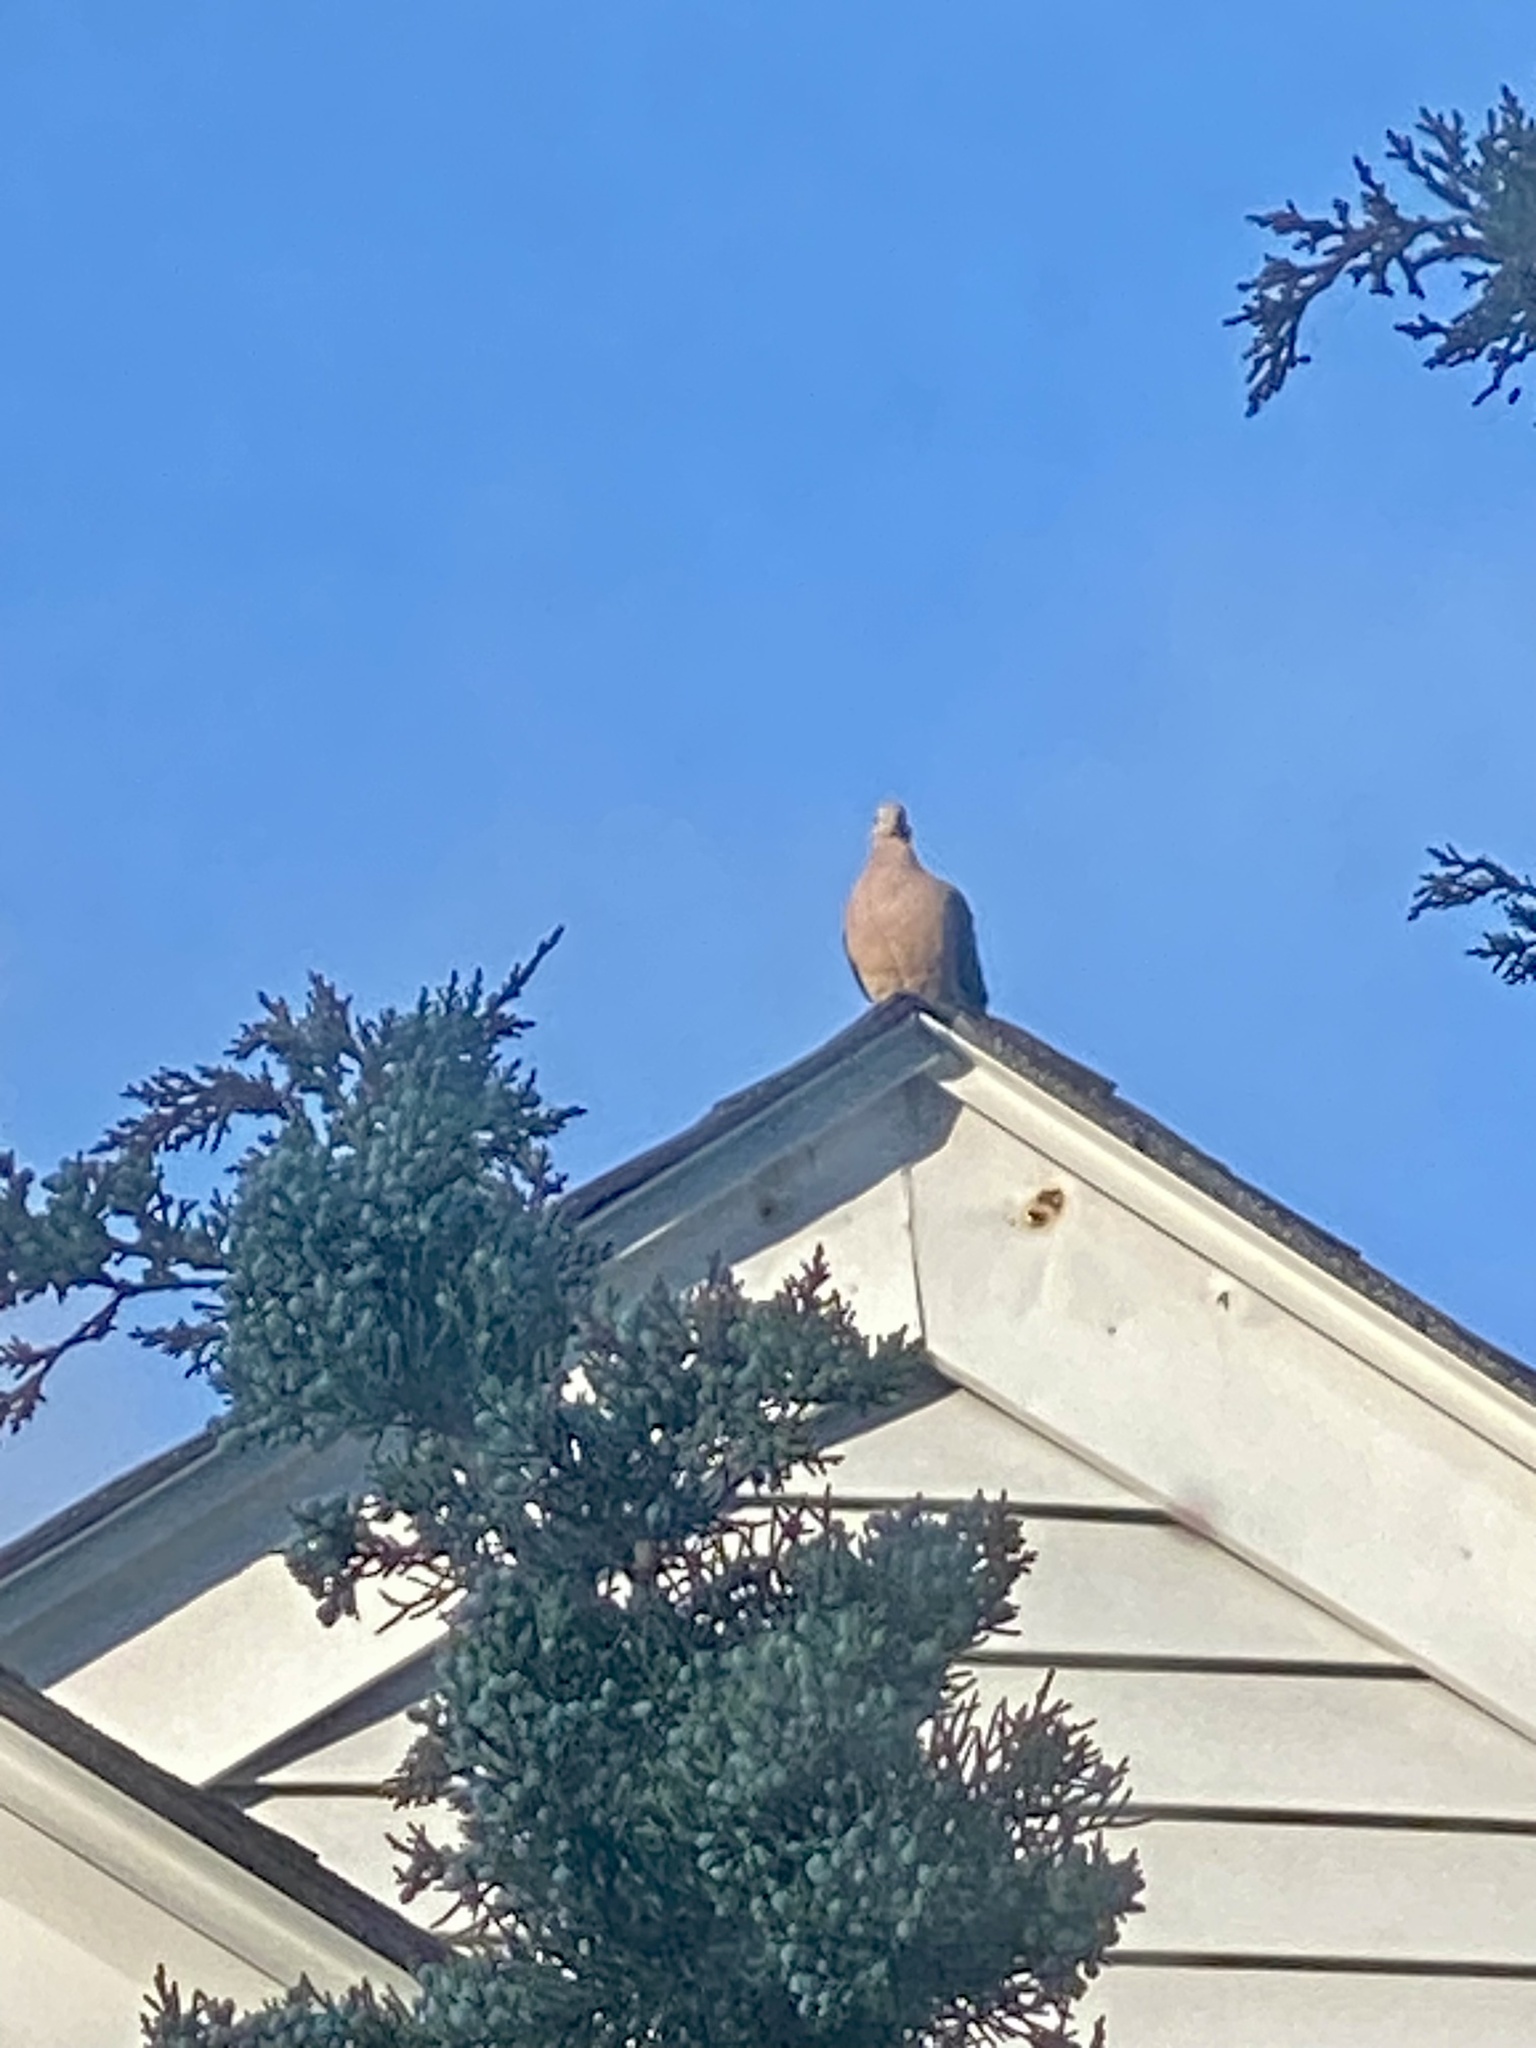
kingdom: Animalia
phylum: Chordata
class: Aves
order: Columbiformes
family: Columbidae
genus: Zenaida
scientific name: Zenaida macroura
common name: Mourning dove
